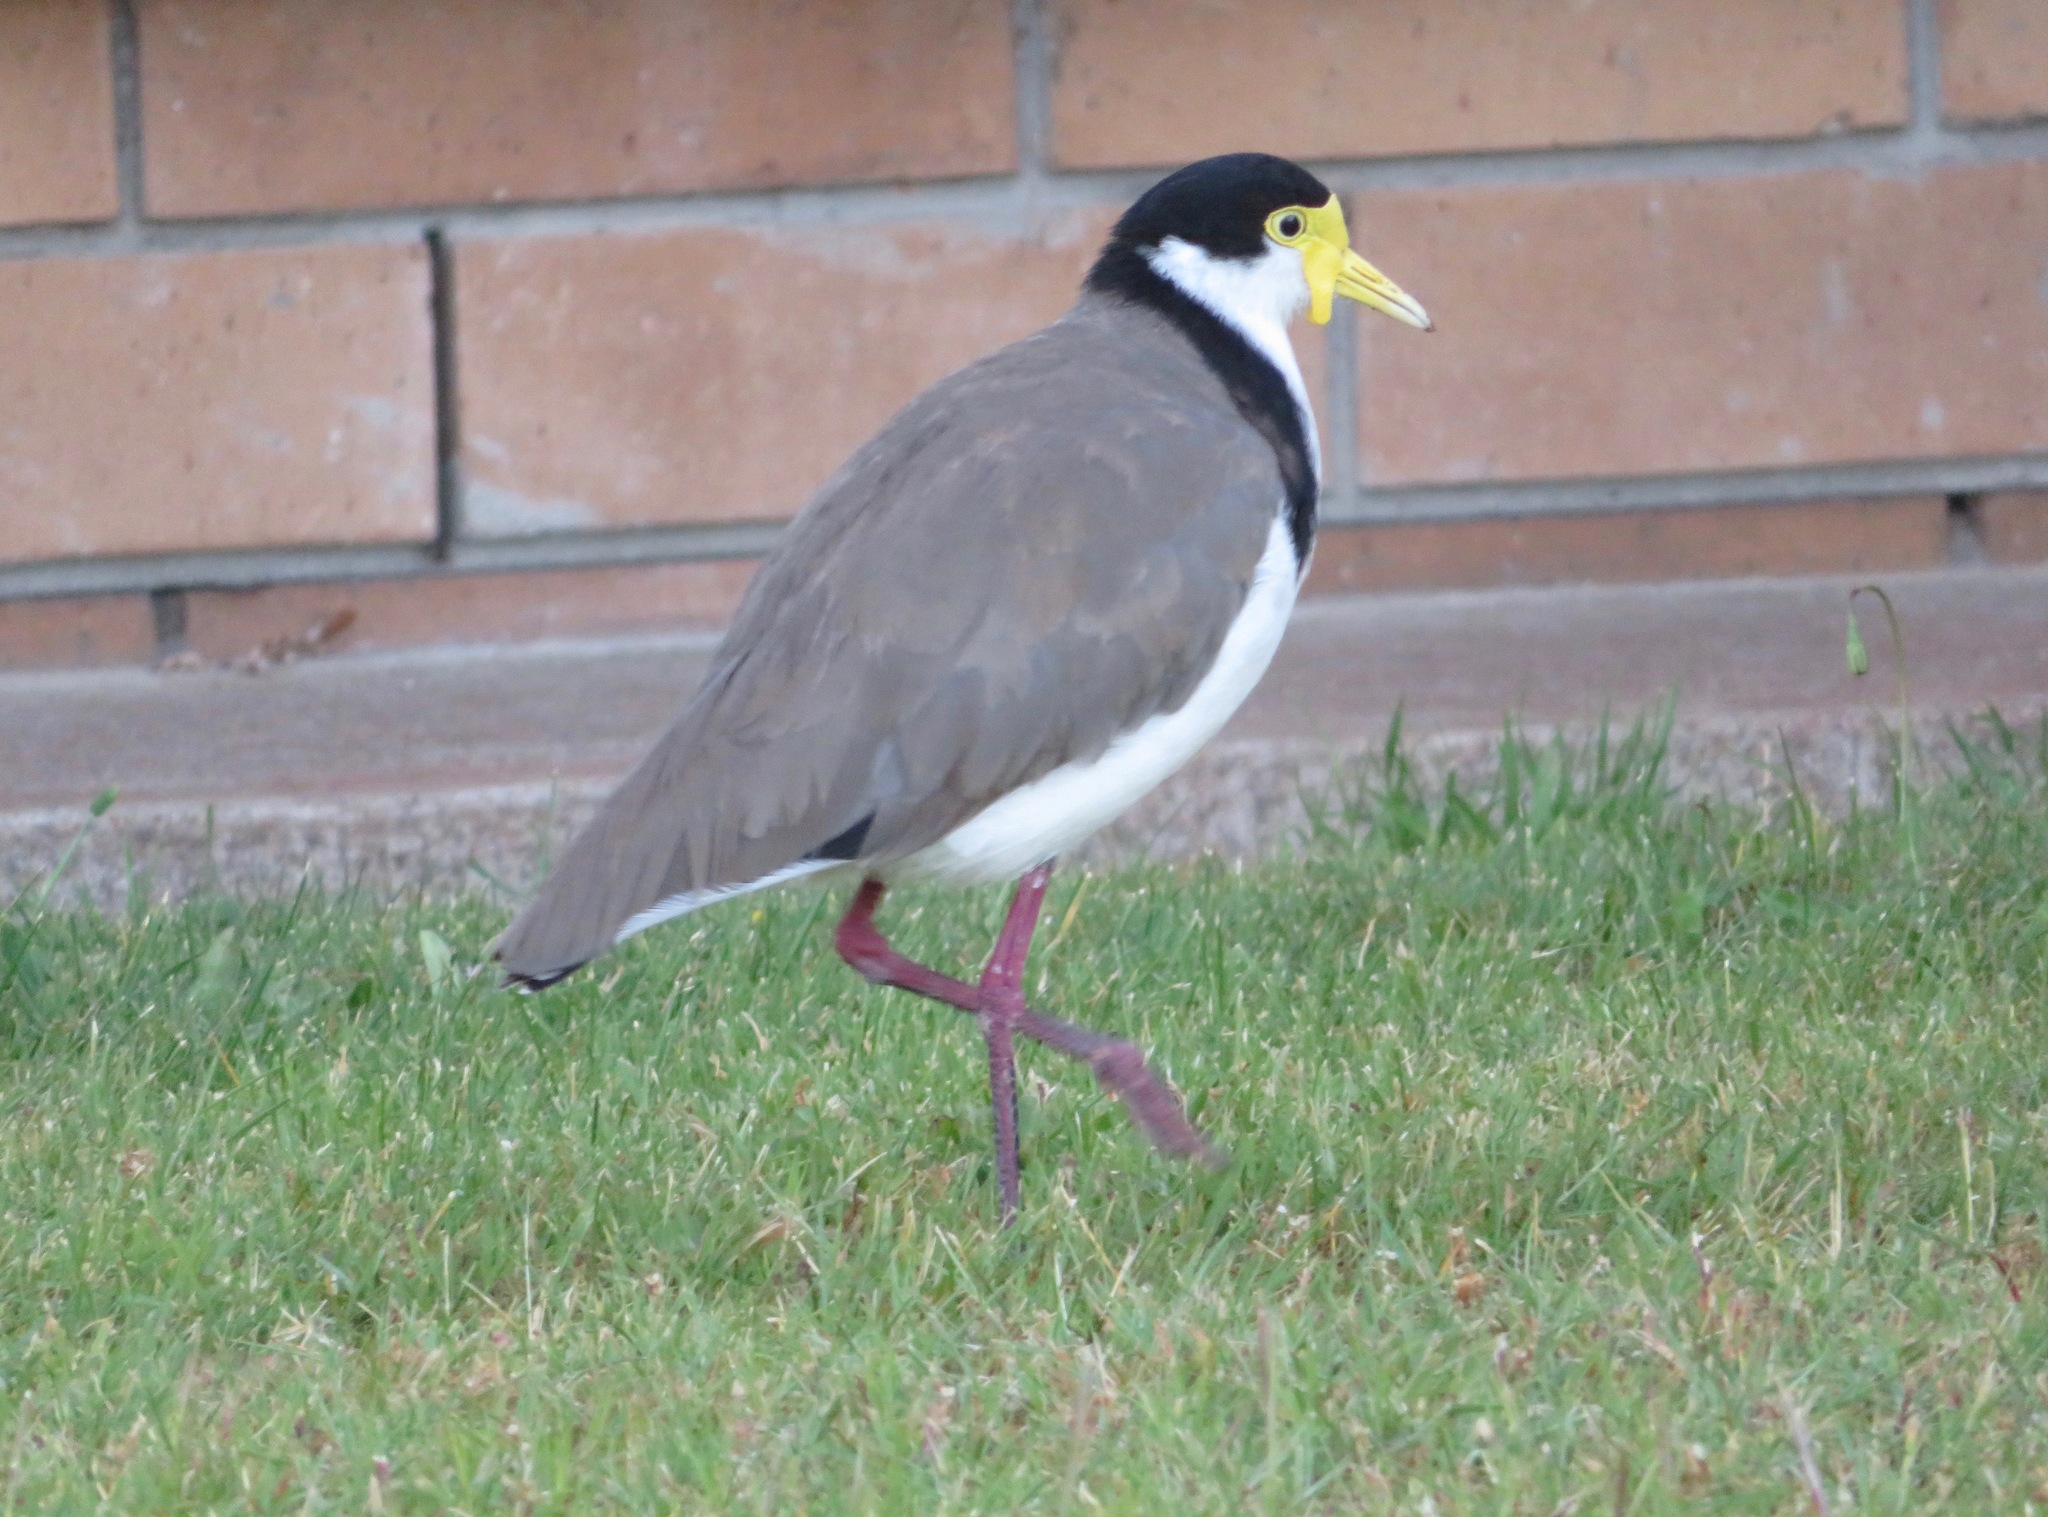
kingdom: Animalia
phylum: Chordata
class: Aves
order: Charadriiformes
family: Charadriidae
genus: Vanellus
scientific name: Vanellus miles
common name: Masked lapwing
